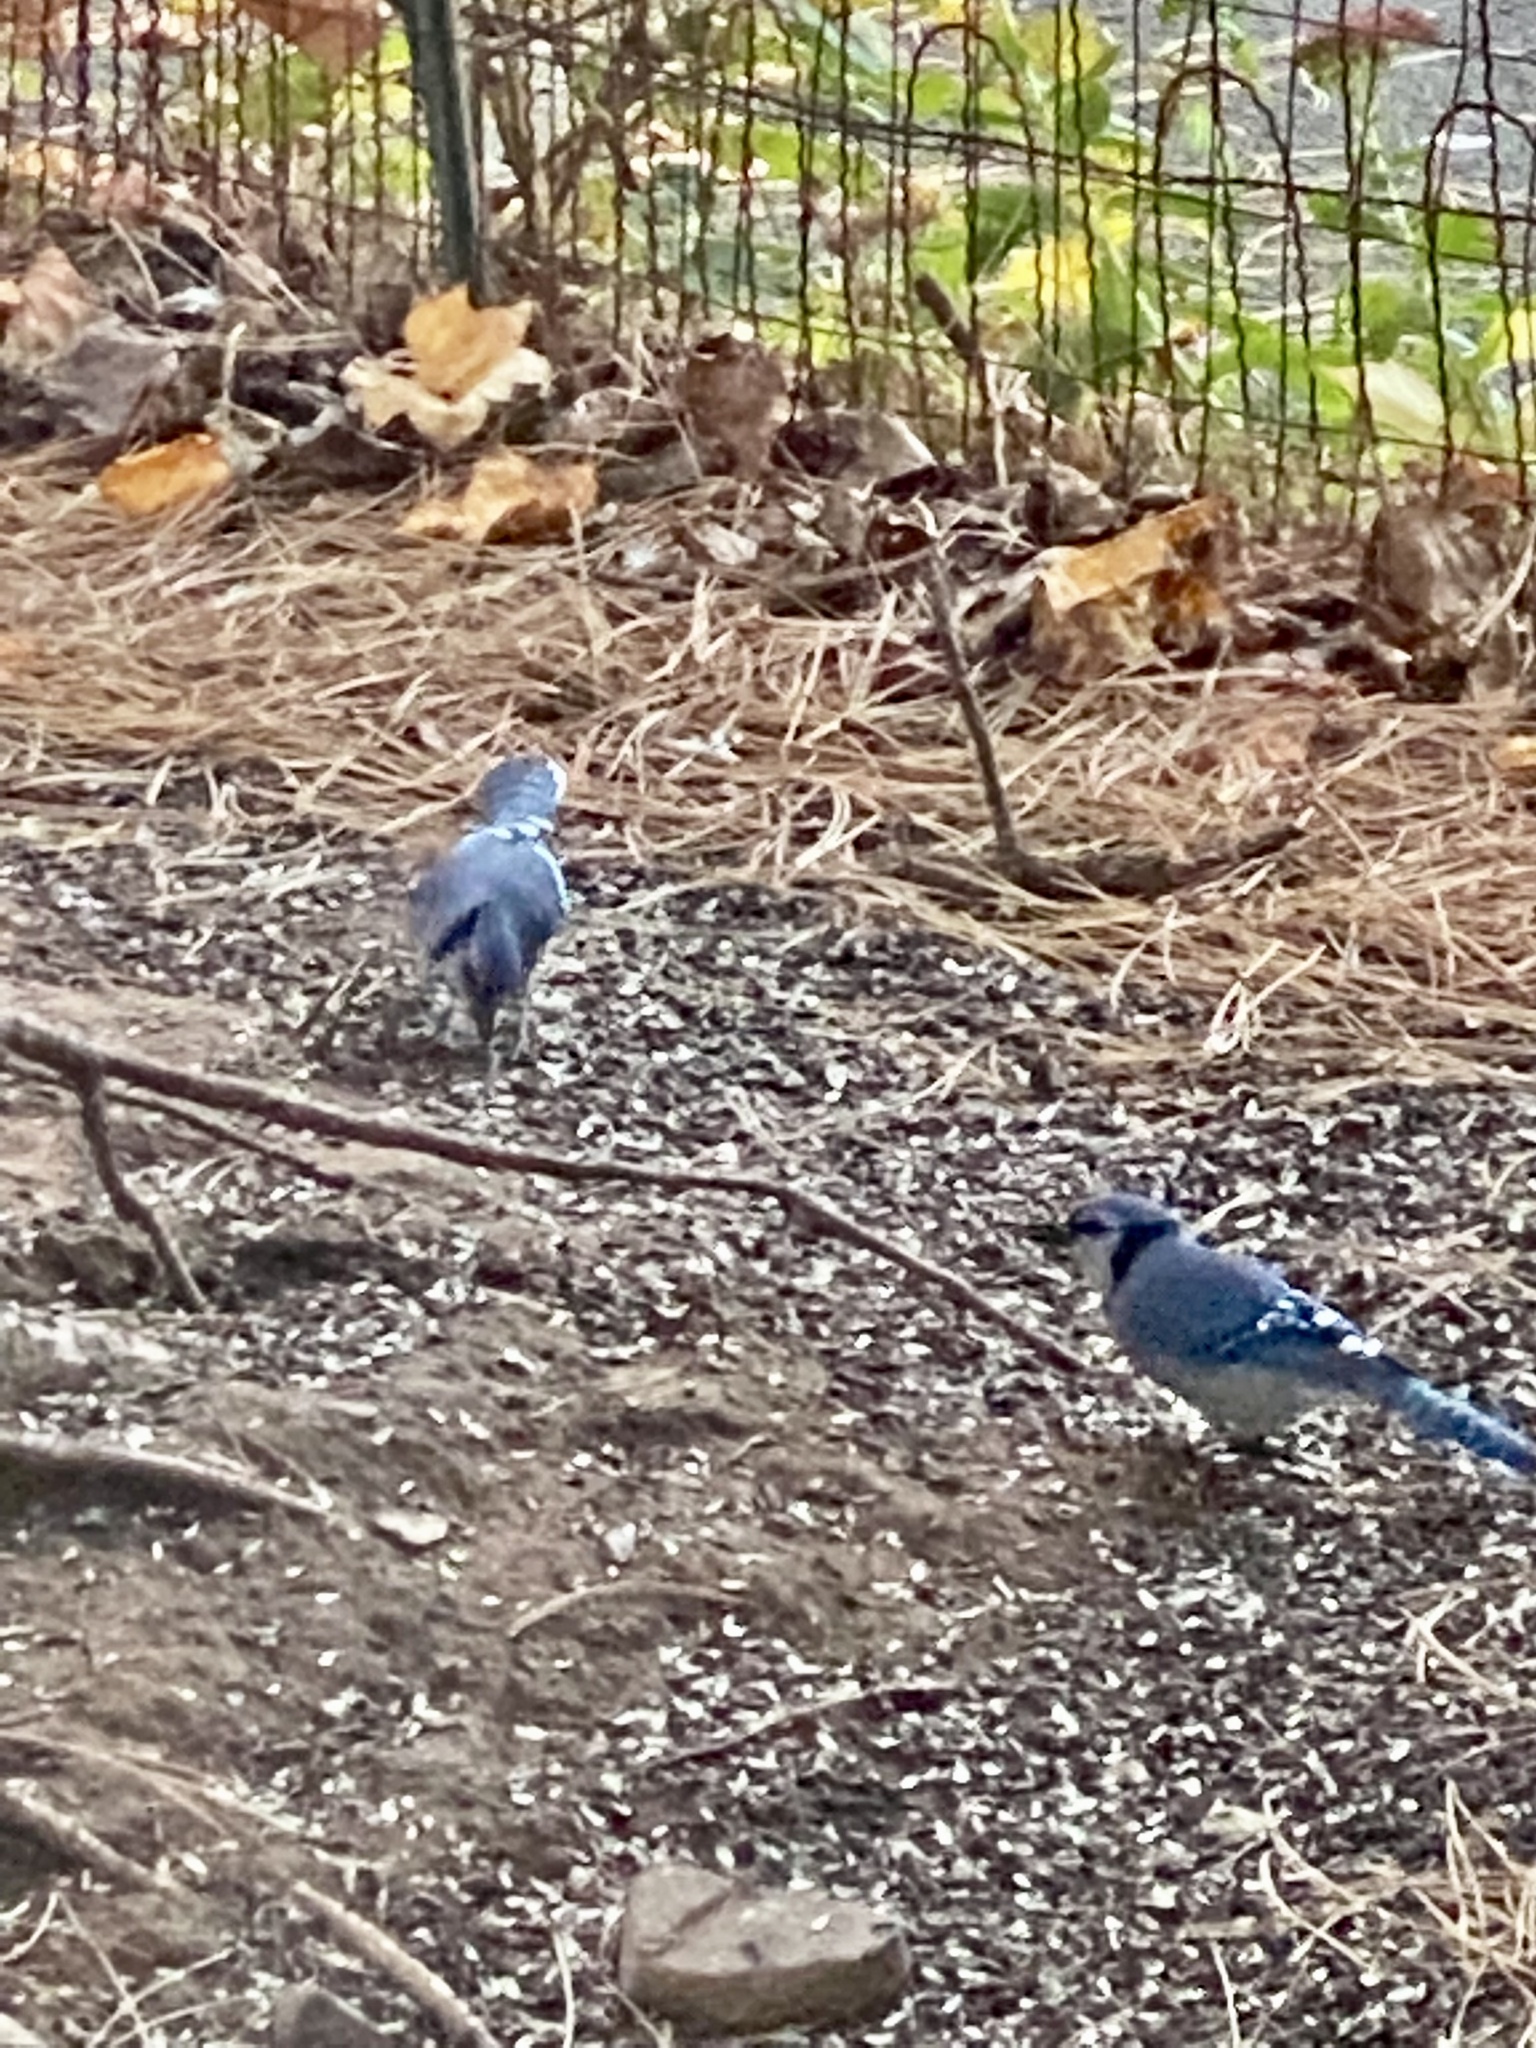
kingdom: Animalia
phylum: Chordata
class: Aves
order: Passeriformes
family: Corvidae
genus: Cyanocitta
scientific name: Cyanocitta cristata
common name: Blue jay
